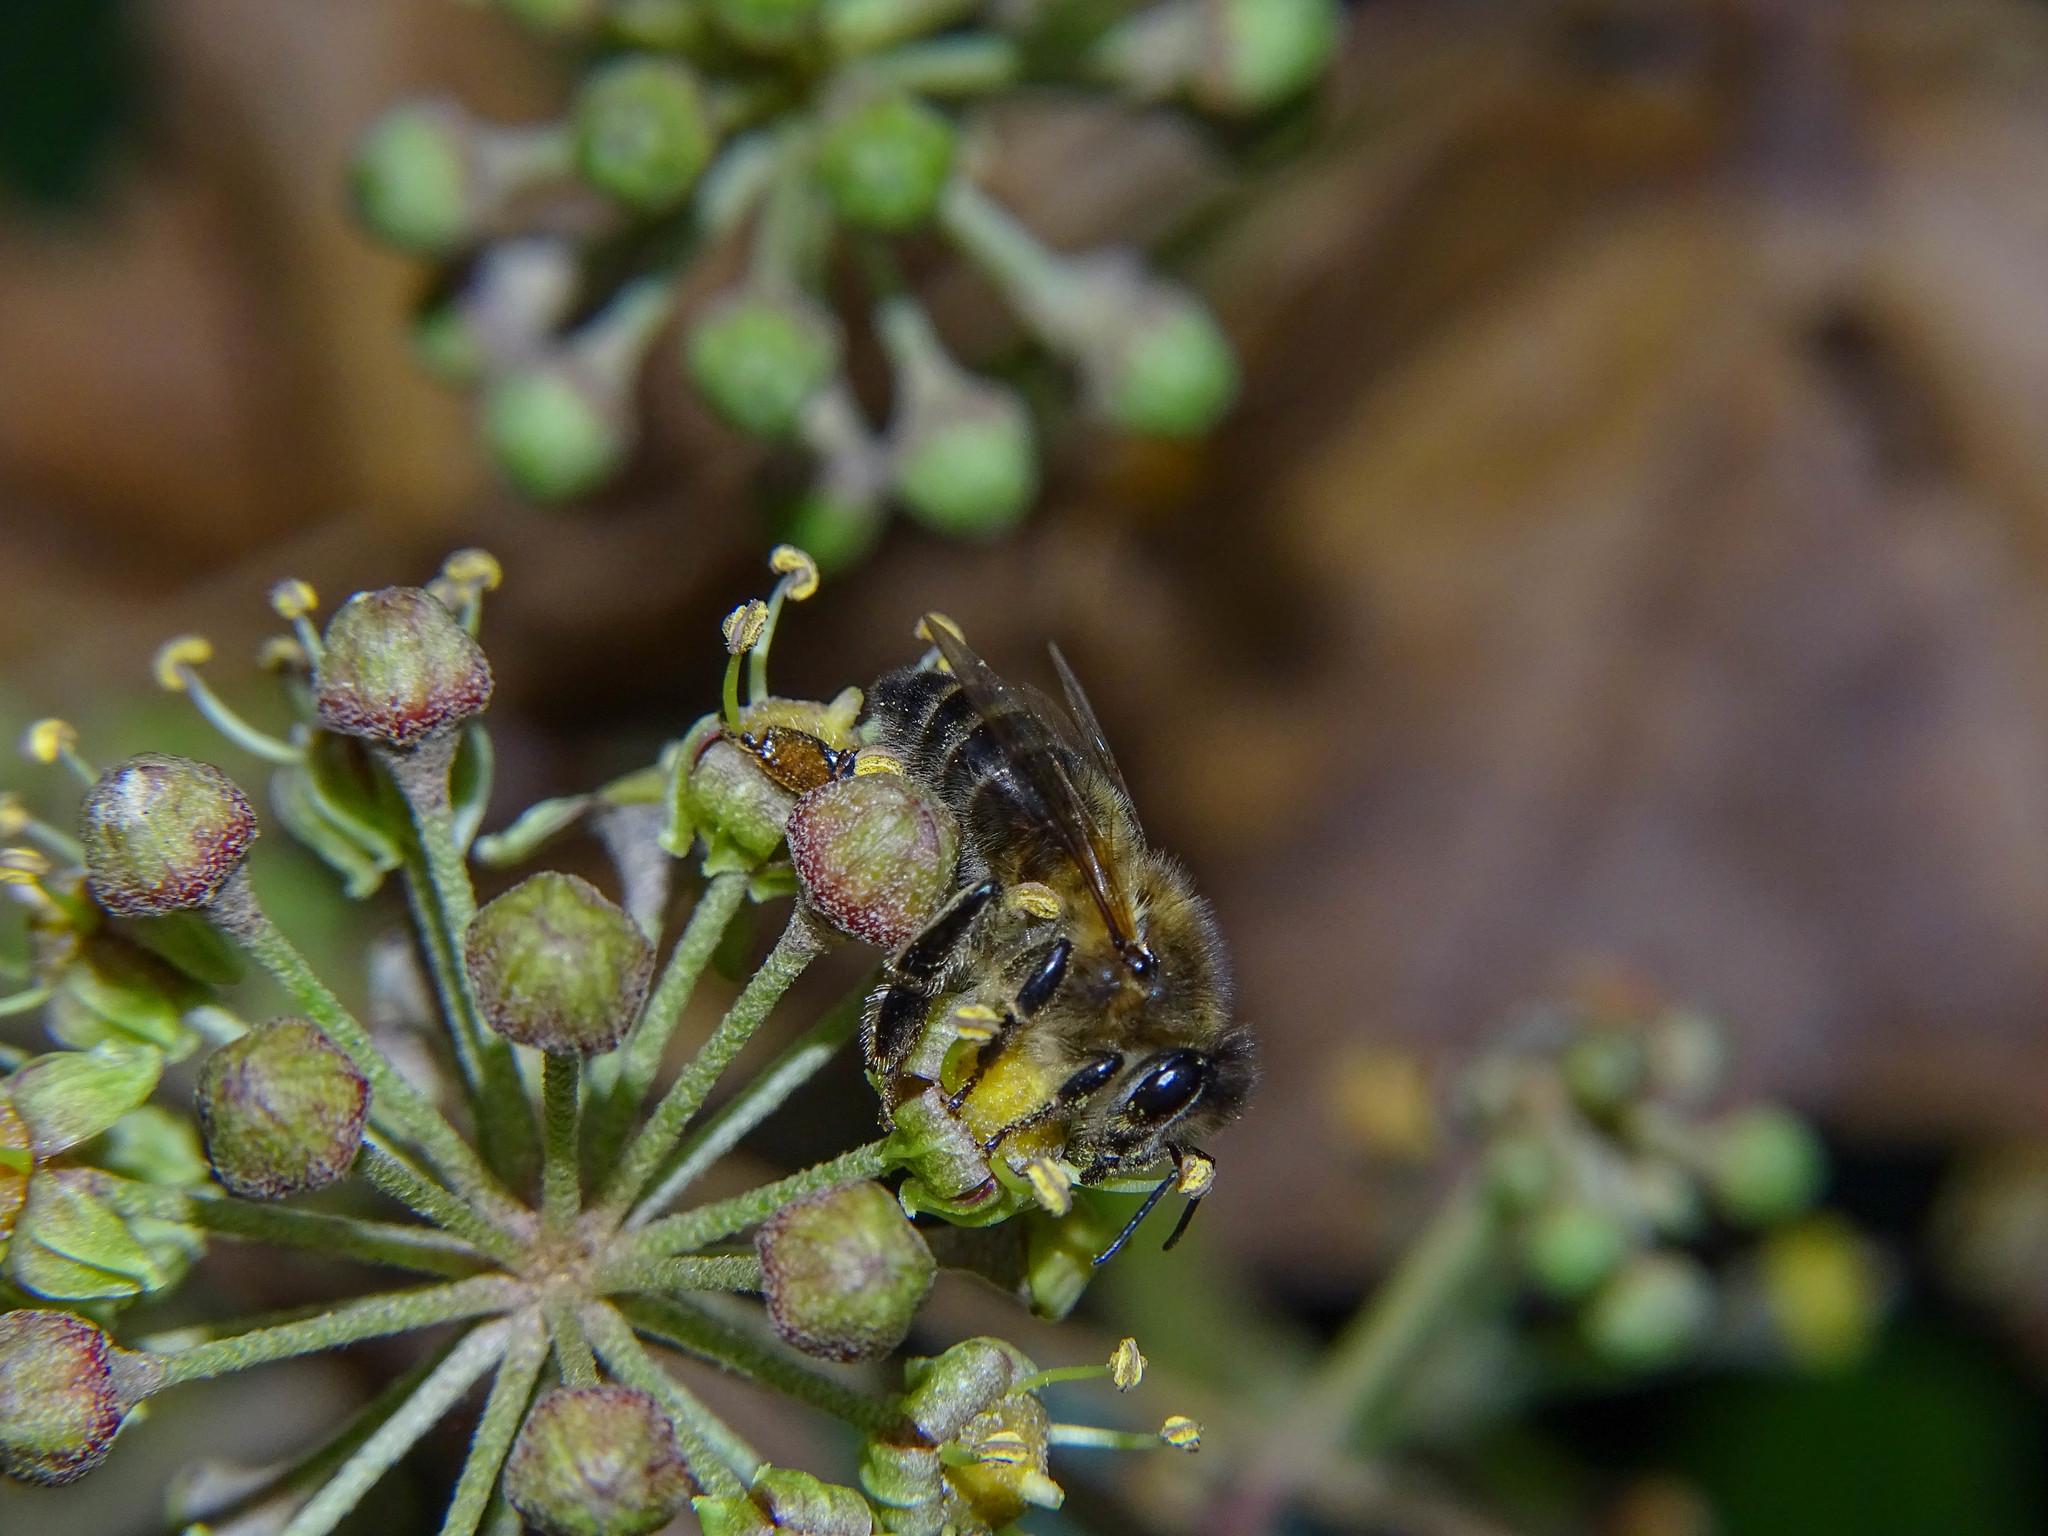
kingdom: Animalia
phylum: Arthropoda
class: Insecta
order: Hymenoptera
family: Apidae
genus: Apis
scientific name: Apis mellifera
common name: Honey bee
